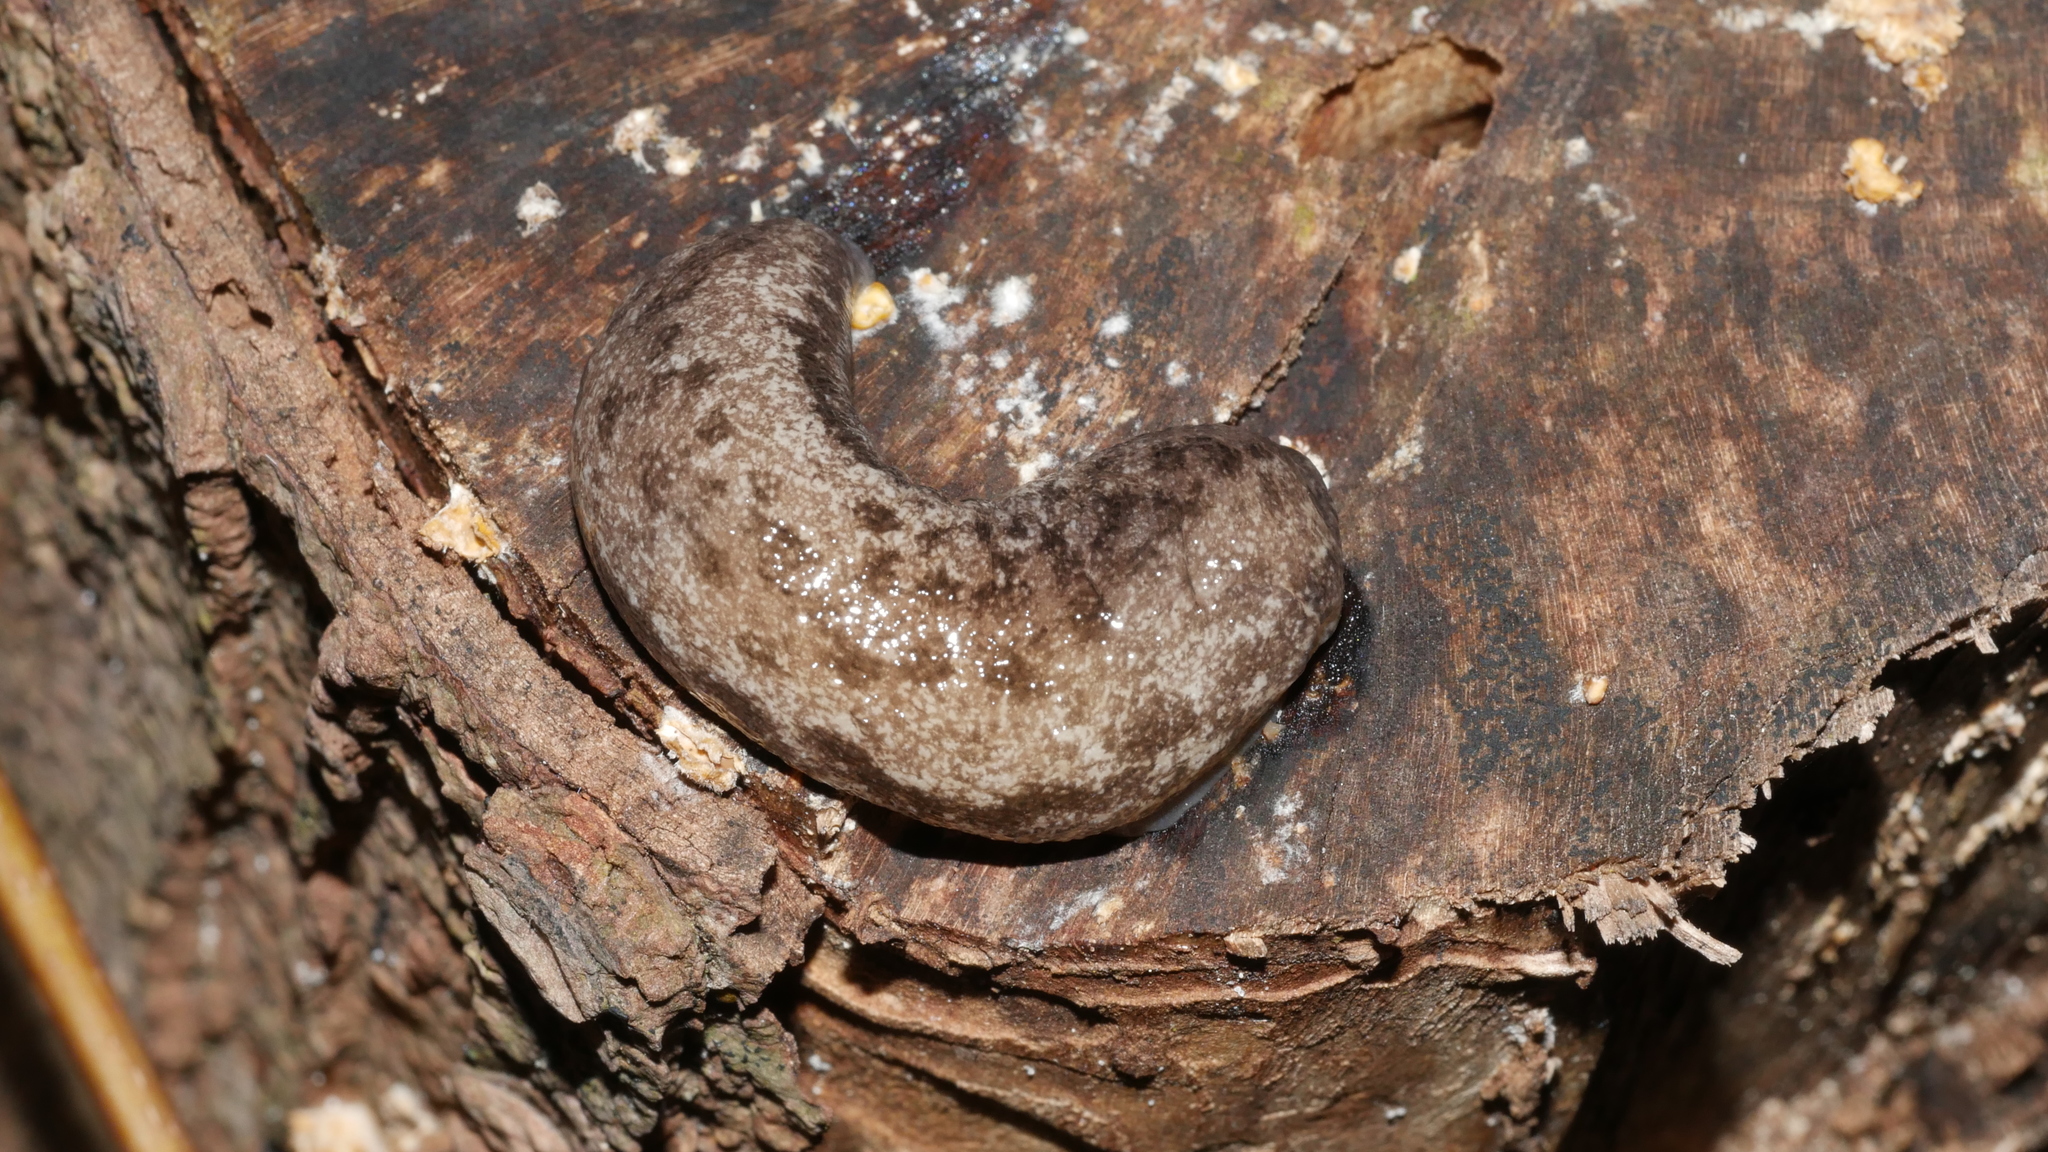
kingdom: Animalia
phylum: Mollusca
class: Gastropoda
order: Stylommatophora
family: Philomycidae
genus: Megapallifera
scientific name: Megapallifera mutabilis
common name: Changeable mantleslug
